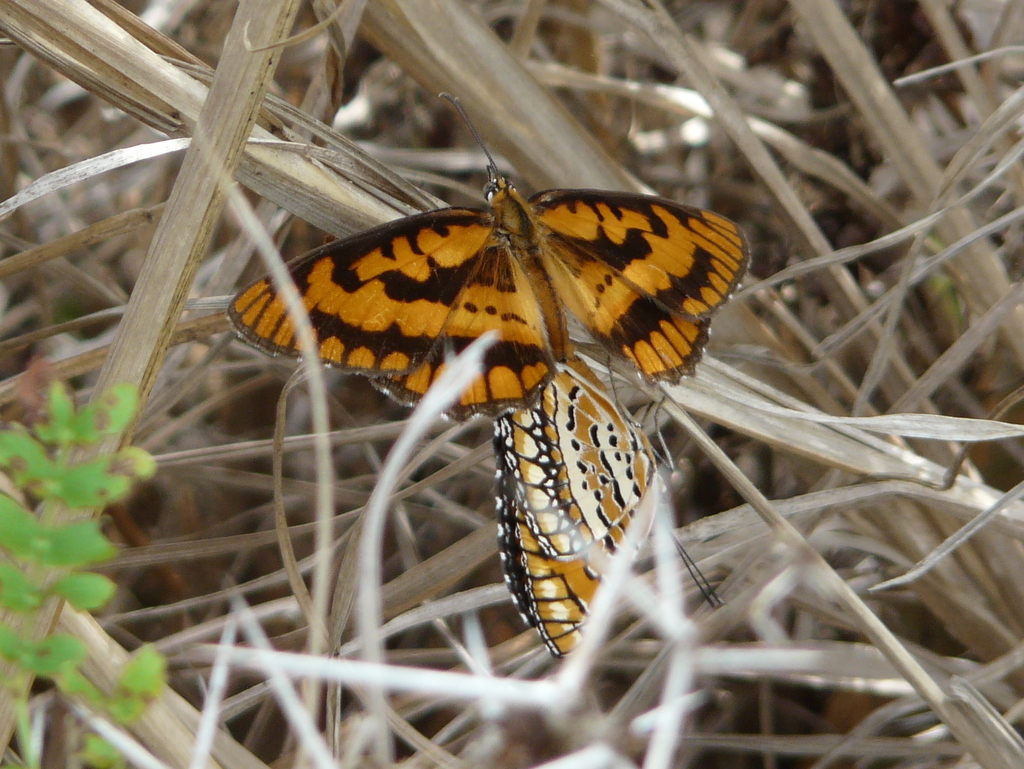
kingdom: Animalia
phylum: Arthropoda
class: Insecta
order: Lepidoptera
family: Nymphalidae
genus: Byblia
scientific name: Byblia ilithyia
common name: Spotted joker
